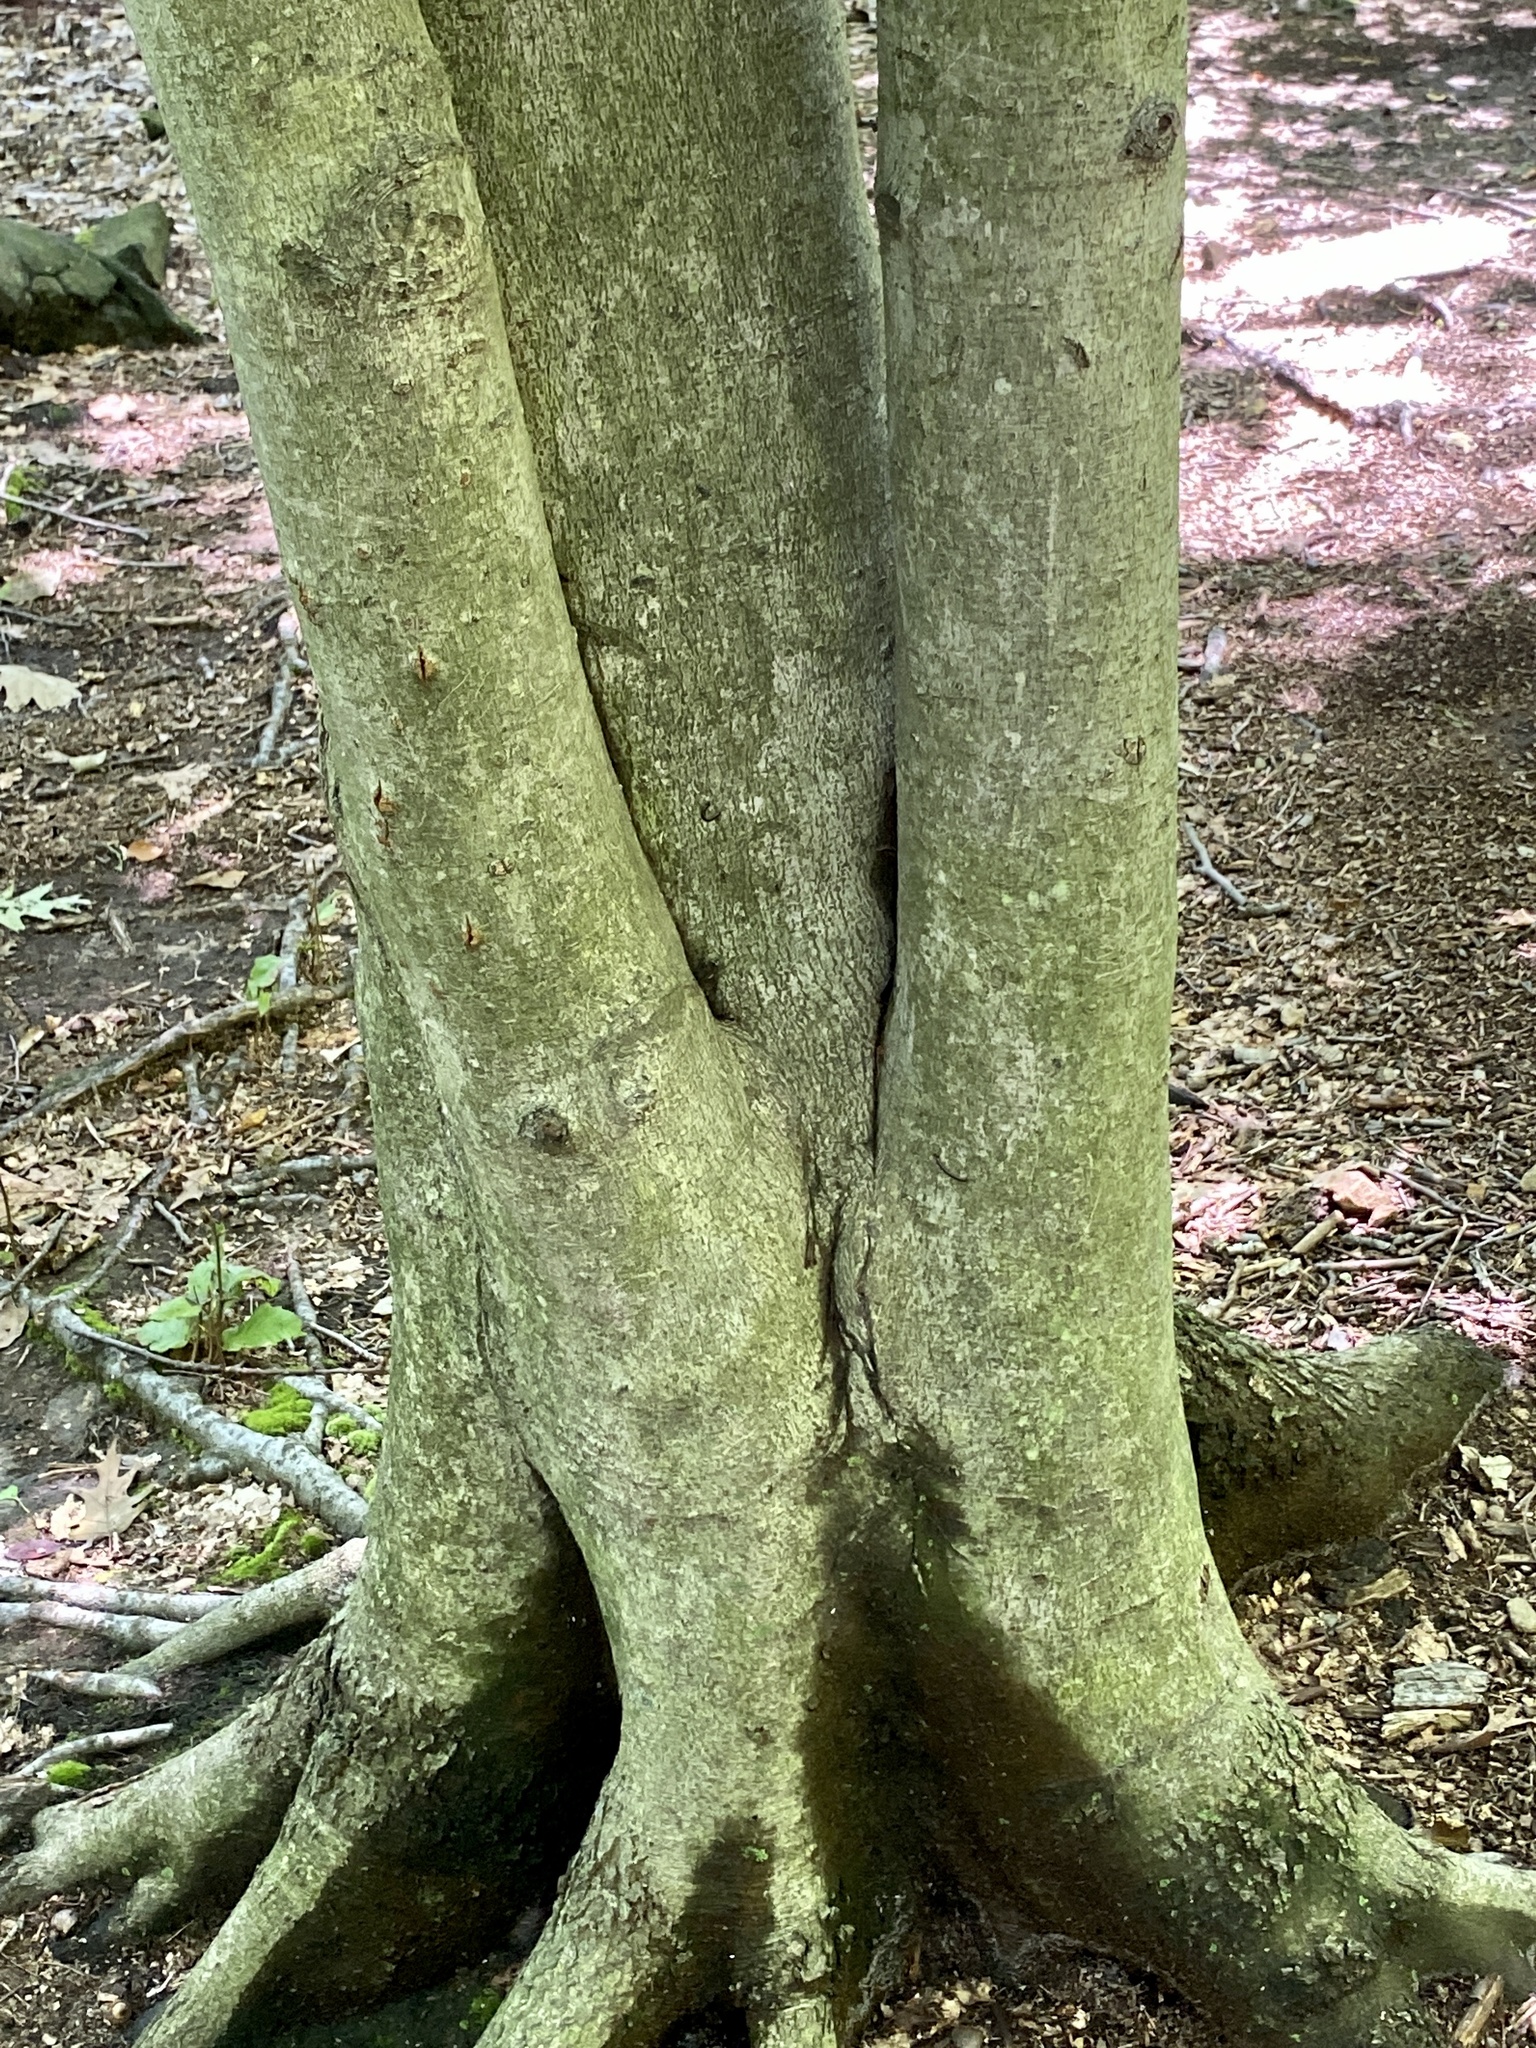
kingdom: Plantae
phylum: Tracheophyta
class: Magnoliopsida
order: Fagales
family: Fagaceae
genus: Fagus
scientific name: Fagus grandifolia
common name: American beech
